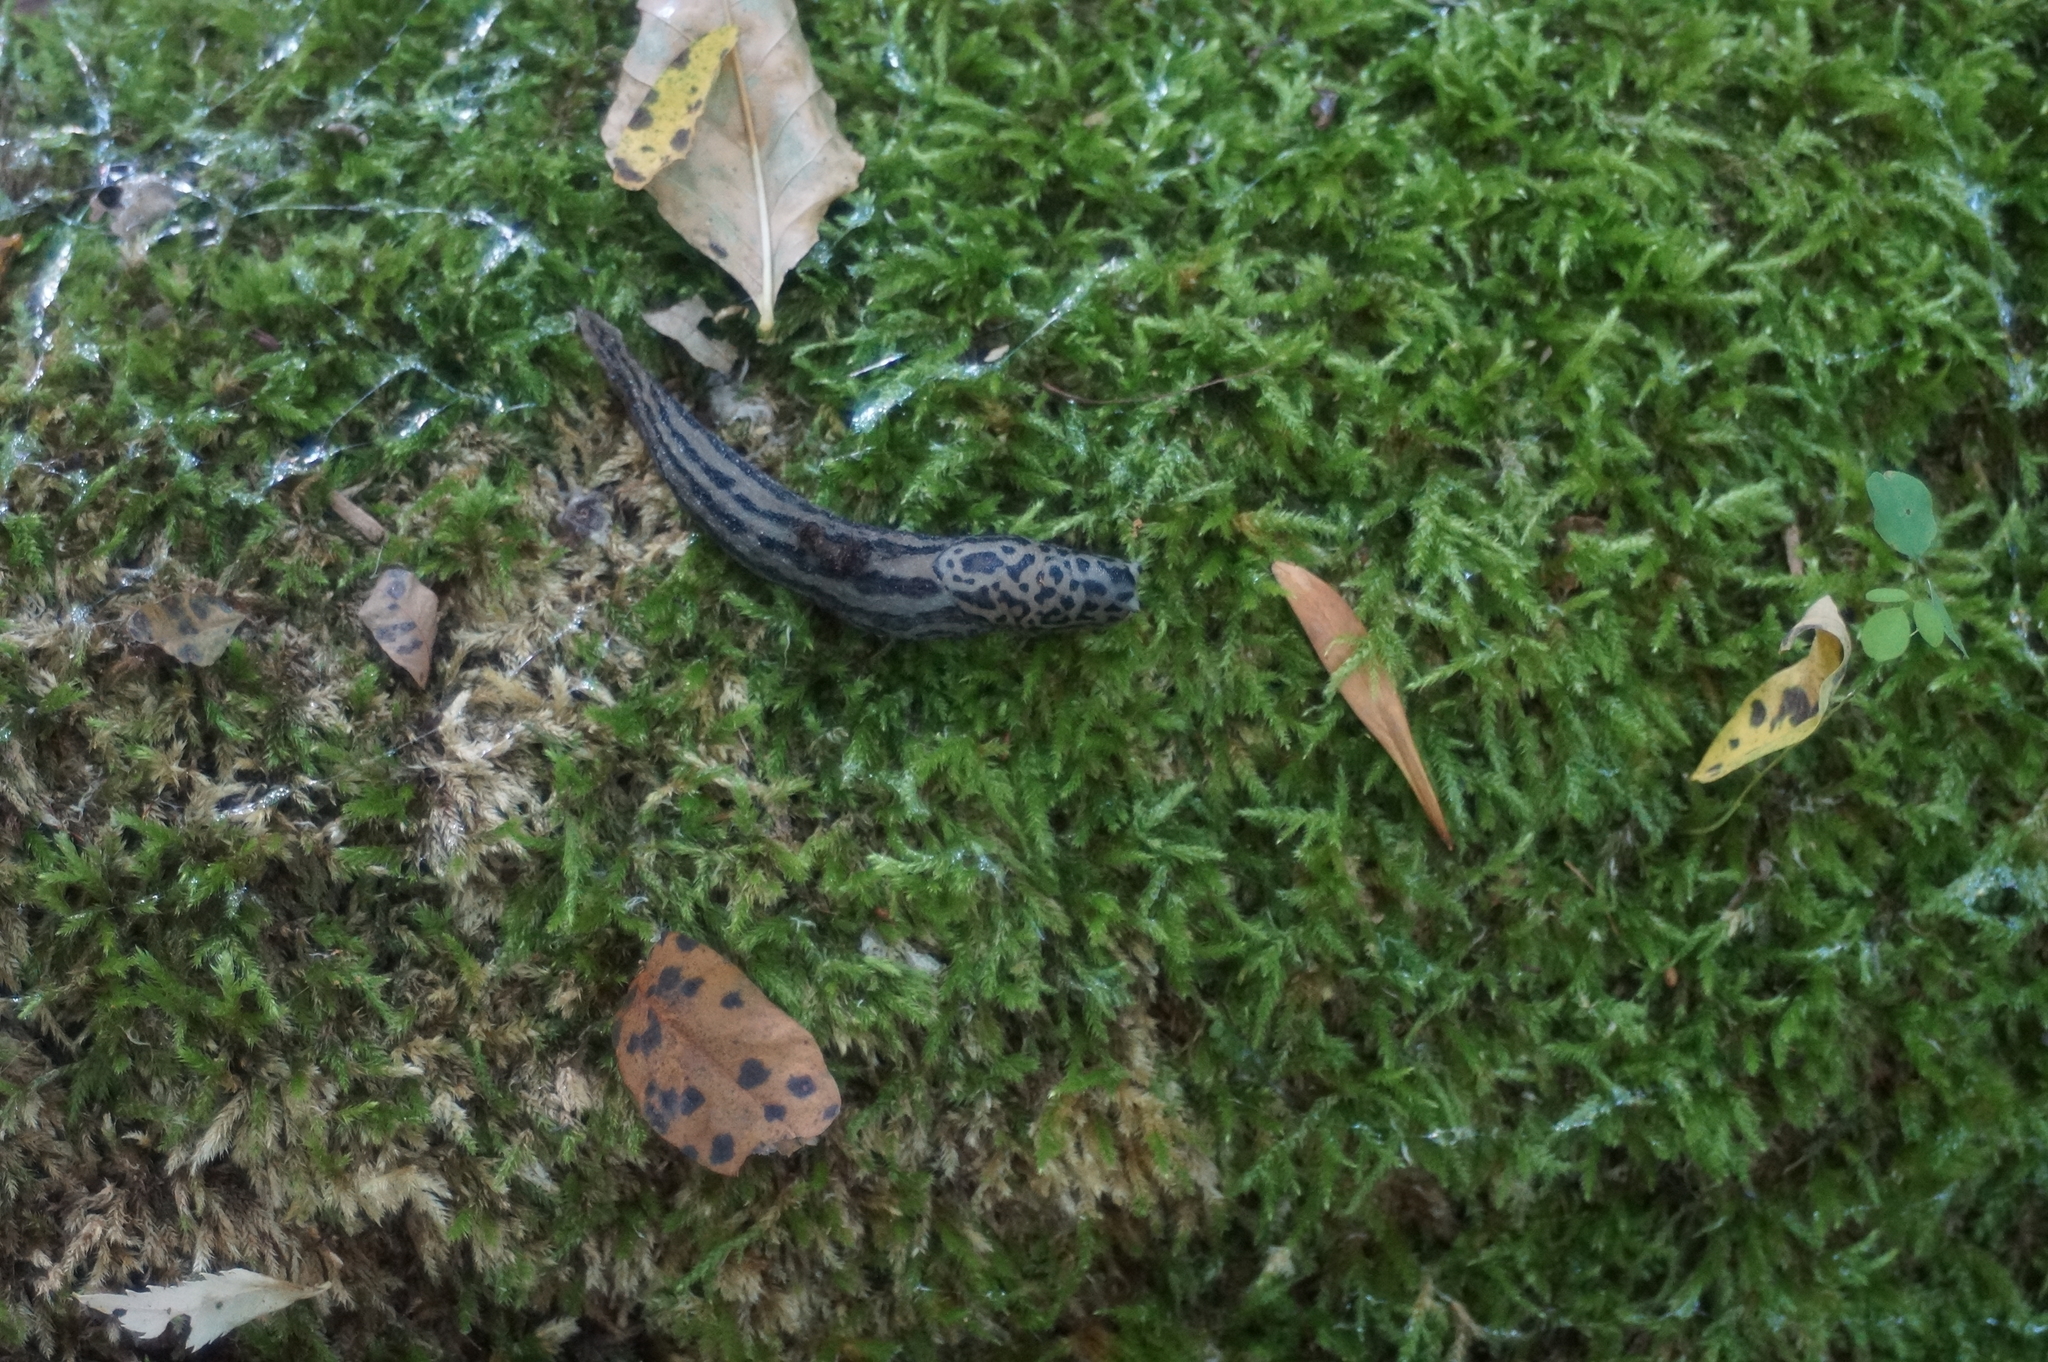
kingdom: Animalia
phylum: Mollusca
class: Gastropoda
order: Stylommatophora
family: Limacidae
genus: Limax
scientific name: Limax maximus
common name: Great grey slug
